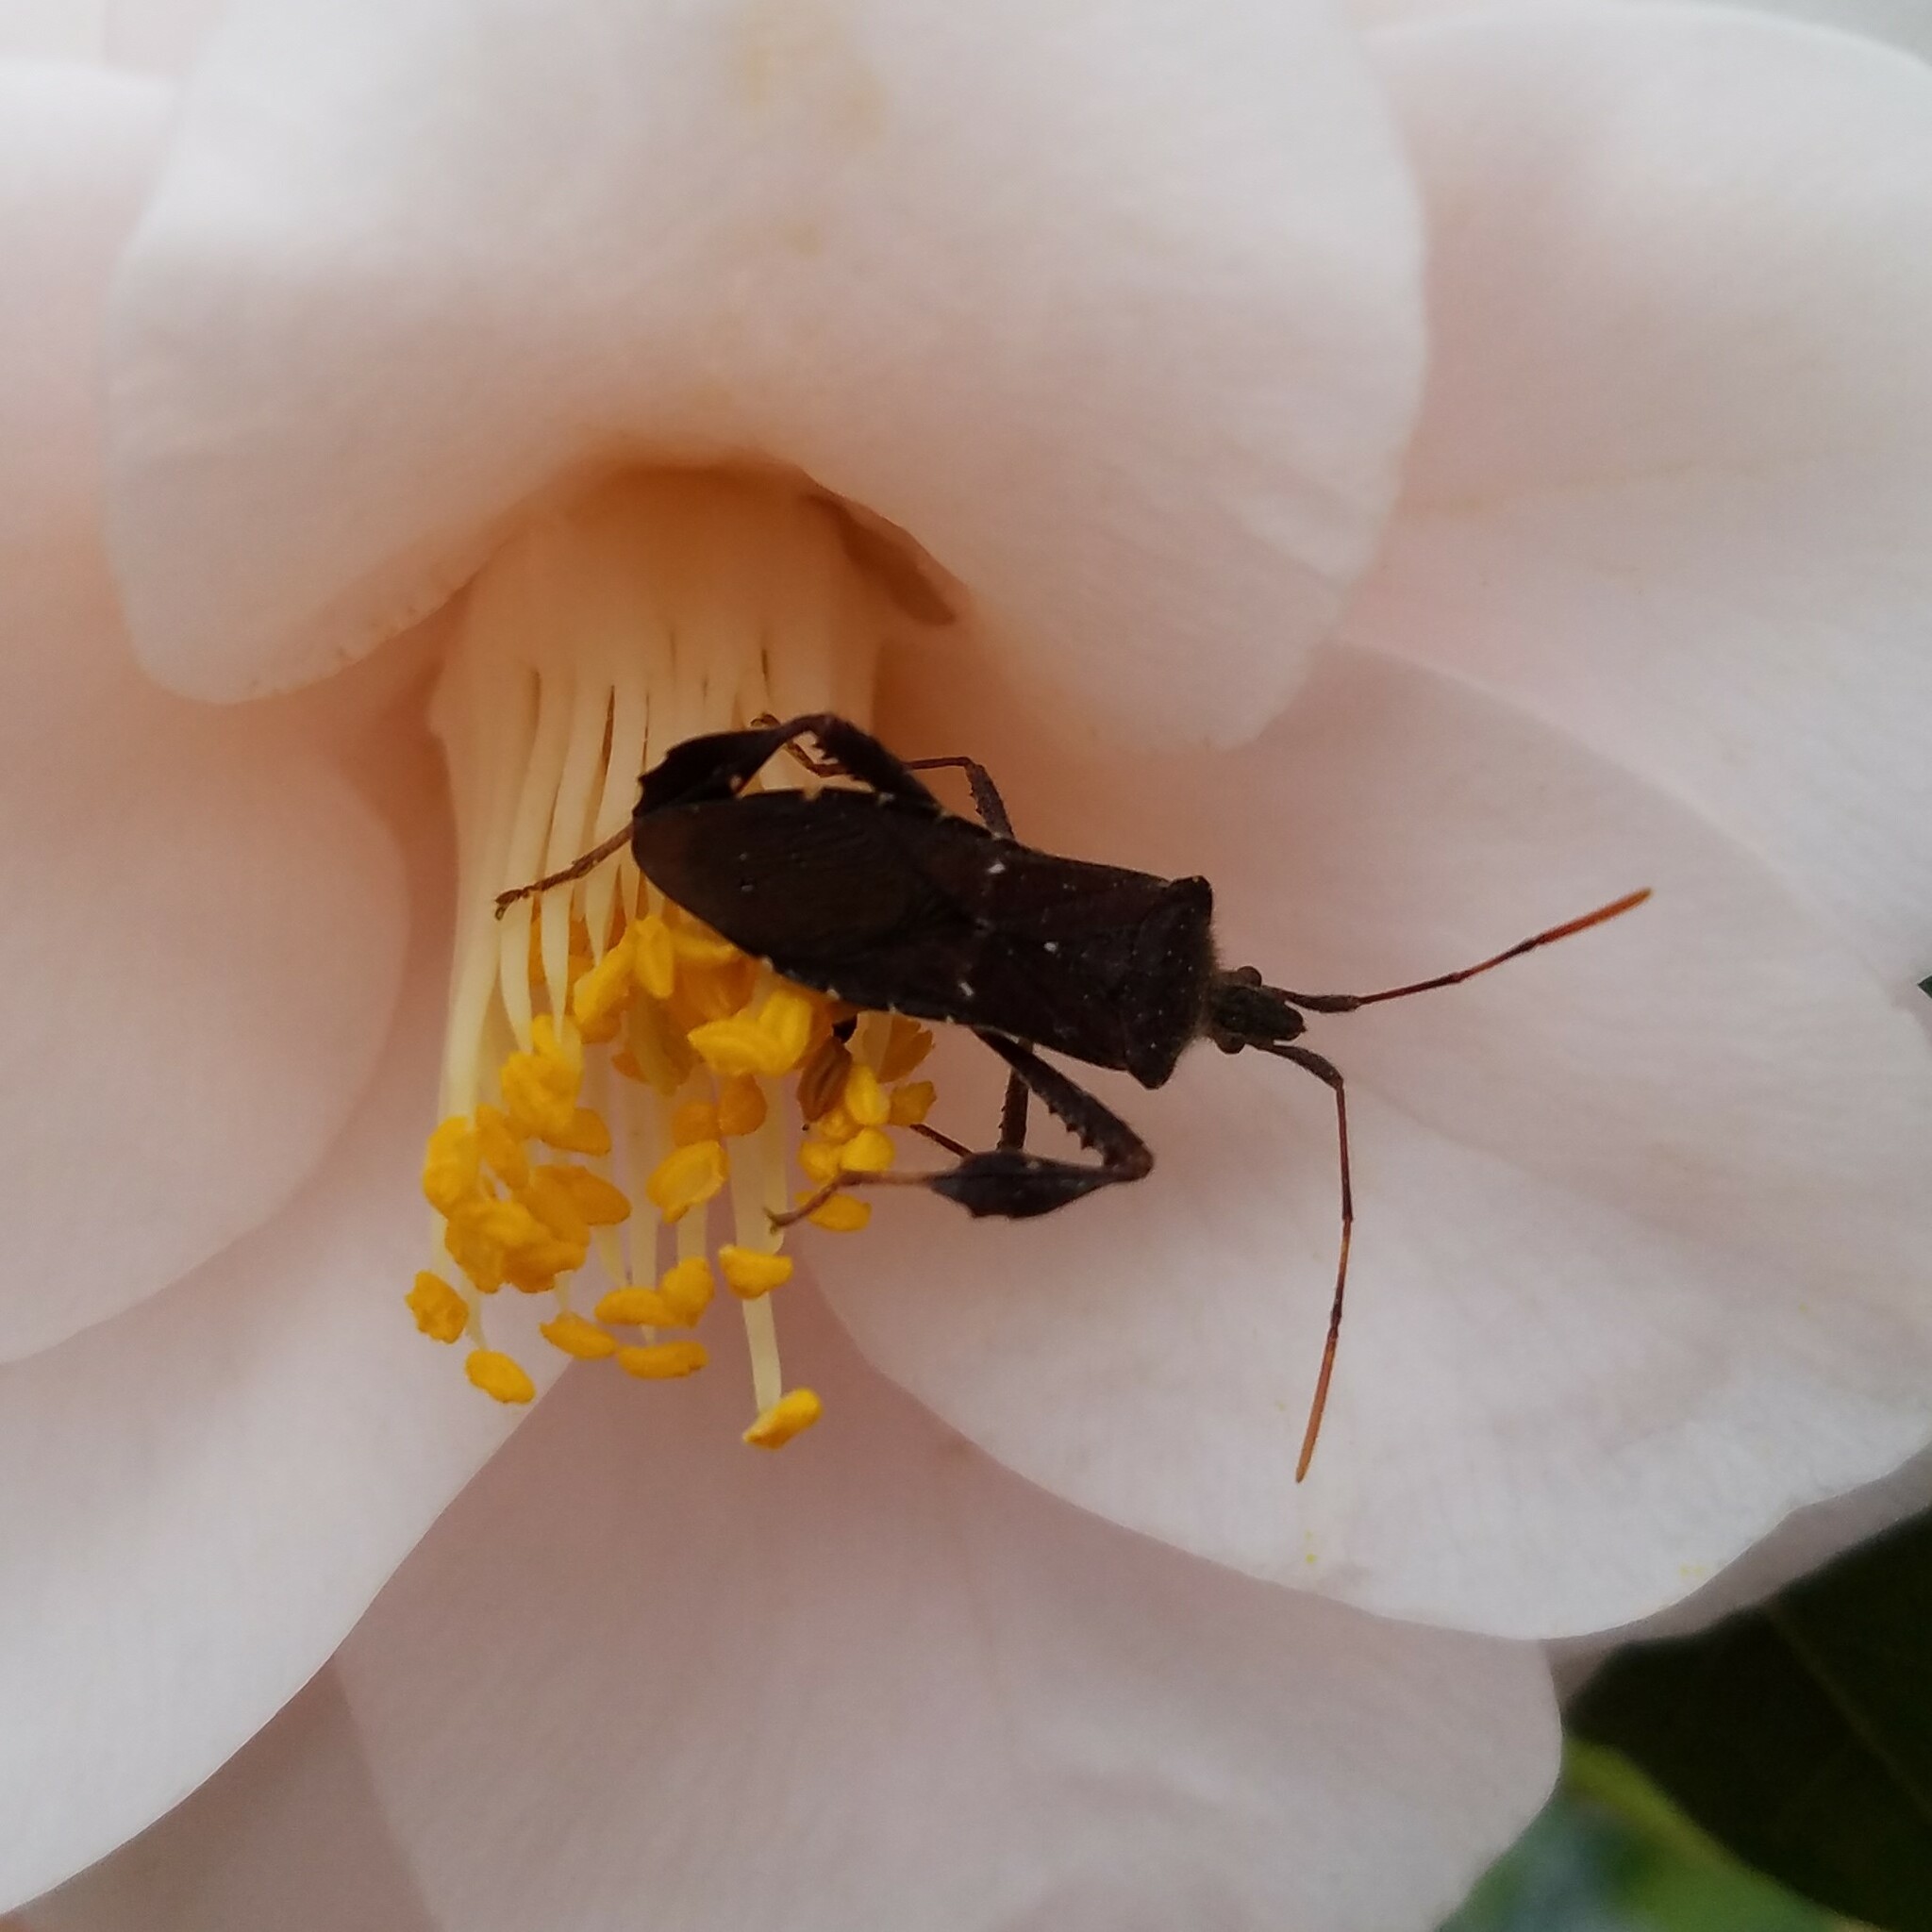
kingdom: Animalia
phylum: Arthropoda
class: Insecta
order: Hemiptera
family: Coreidae
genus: Leptoglossus
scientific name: Leptoglossus oppositus
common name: Northern leaf-footed bug
